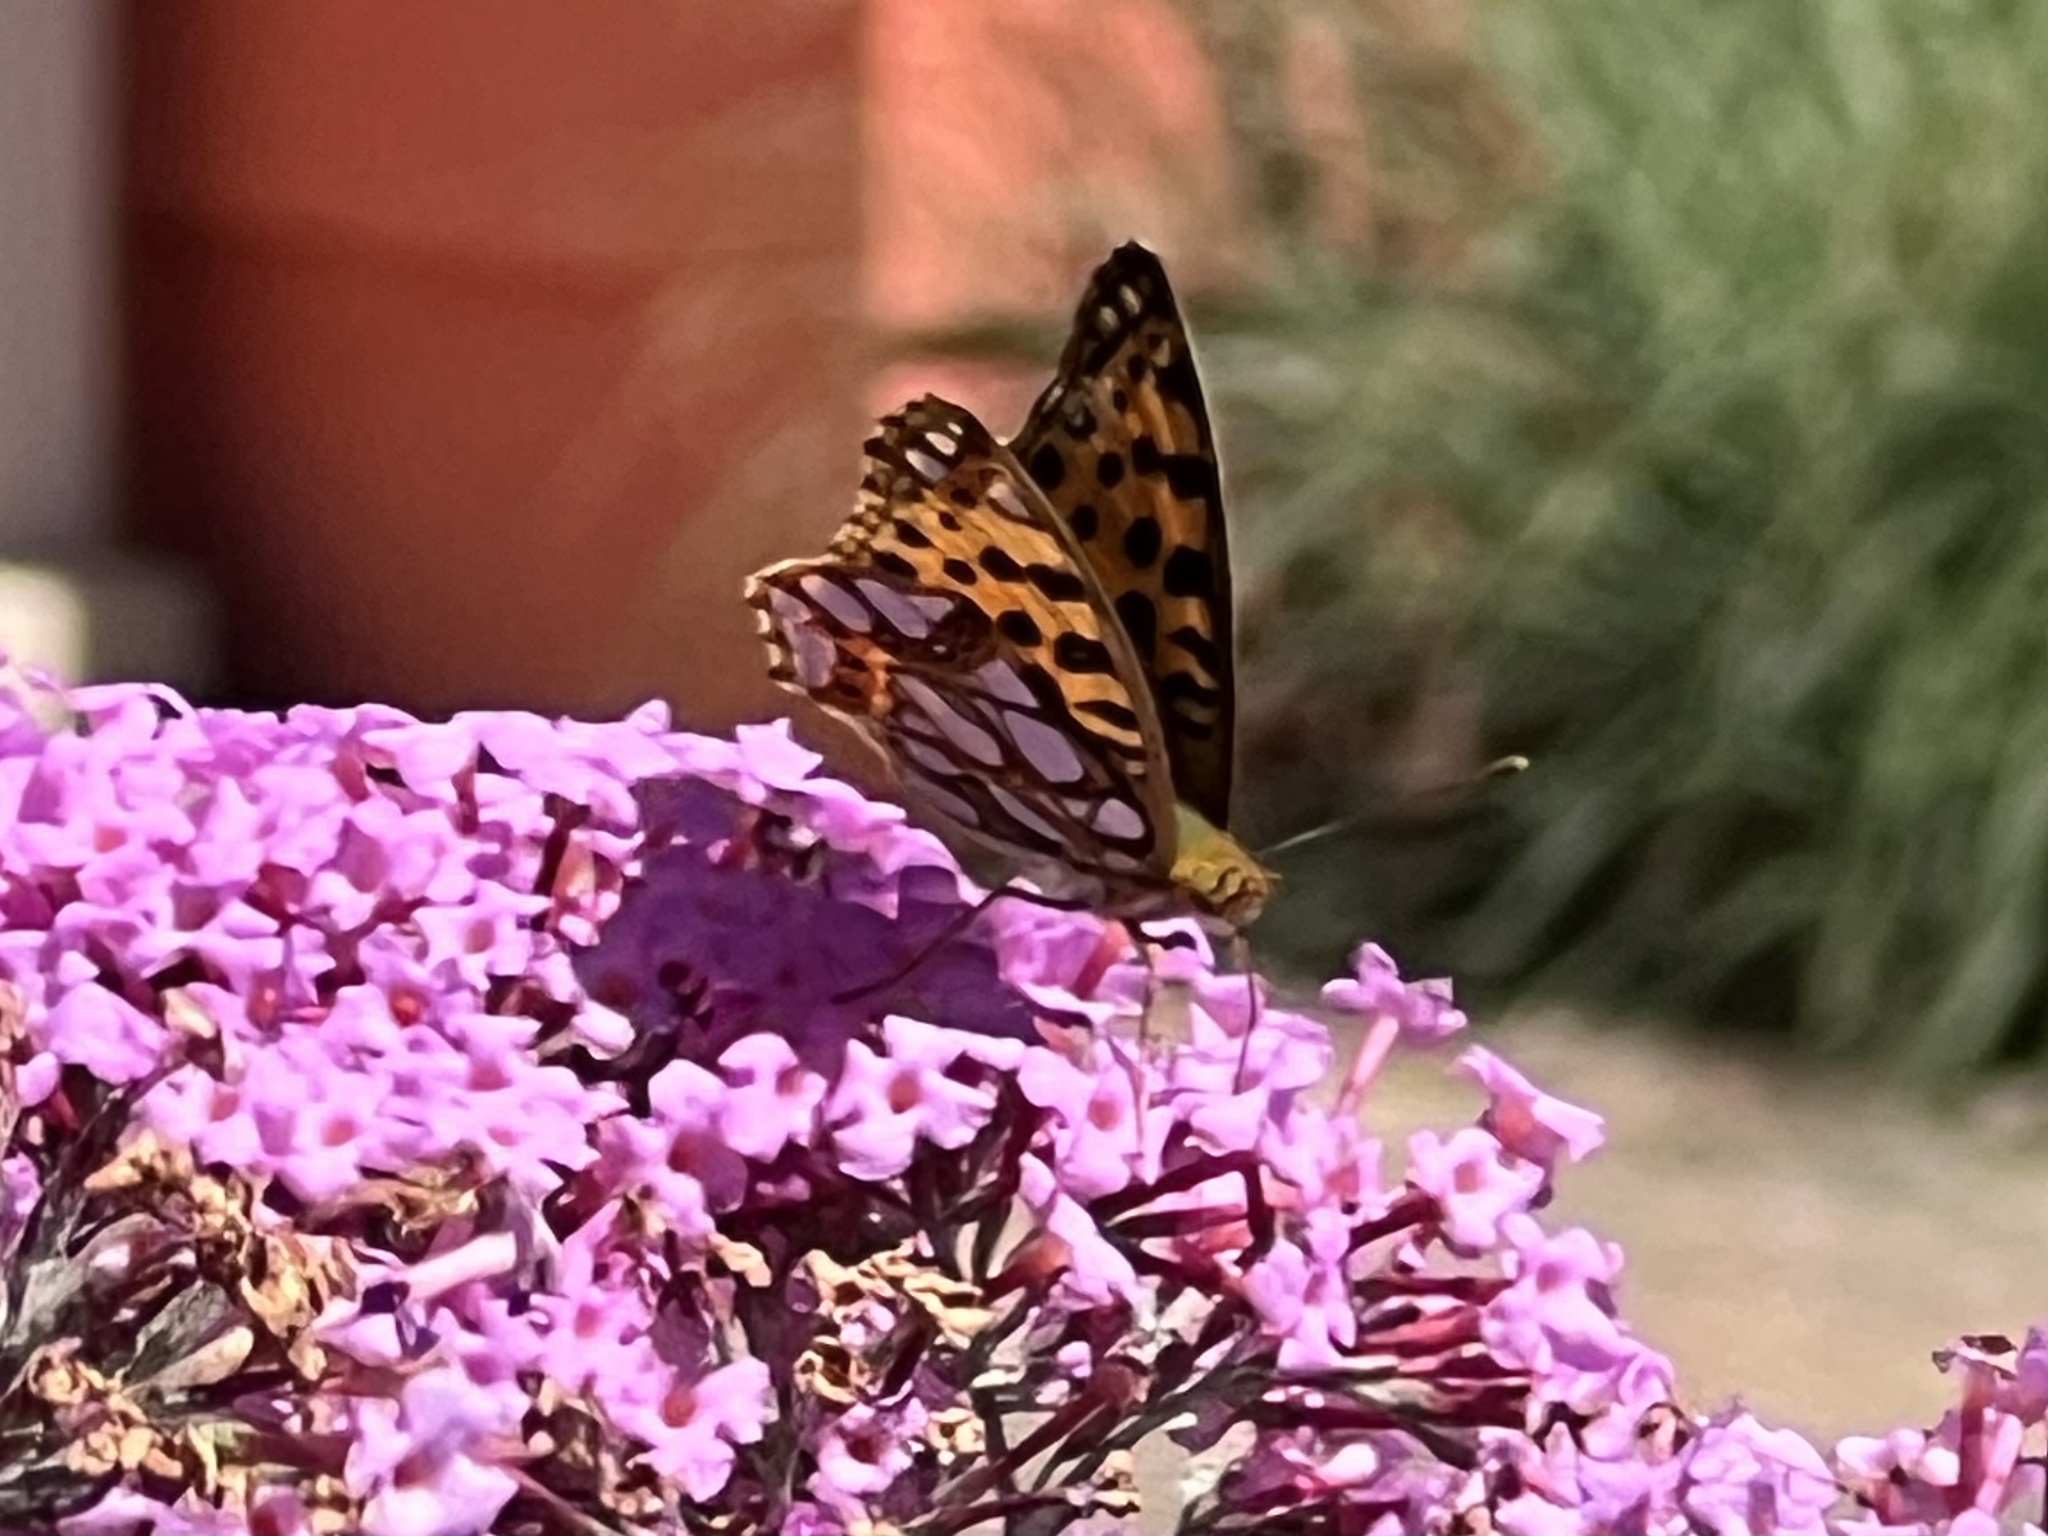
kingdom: Animalia
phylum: Arthropoda
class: Insecta
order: Lepidoptera
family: Nymphalidae
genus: Issoria
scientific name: Issoria lathonia
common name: Queen of spain fritillary
